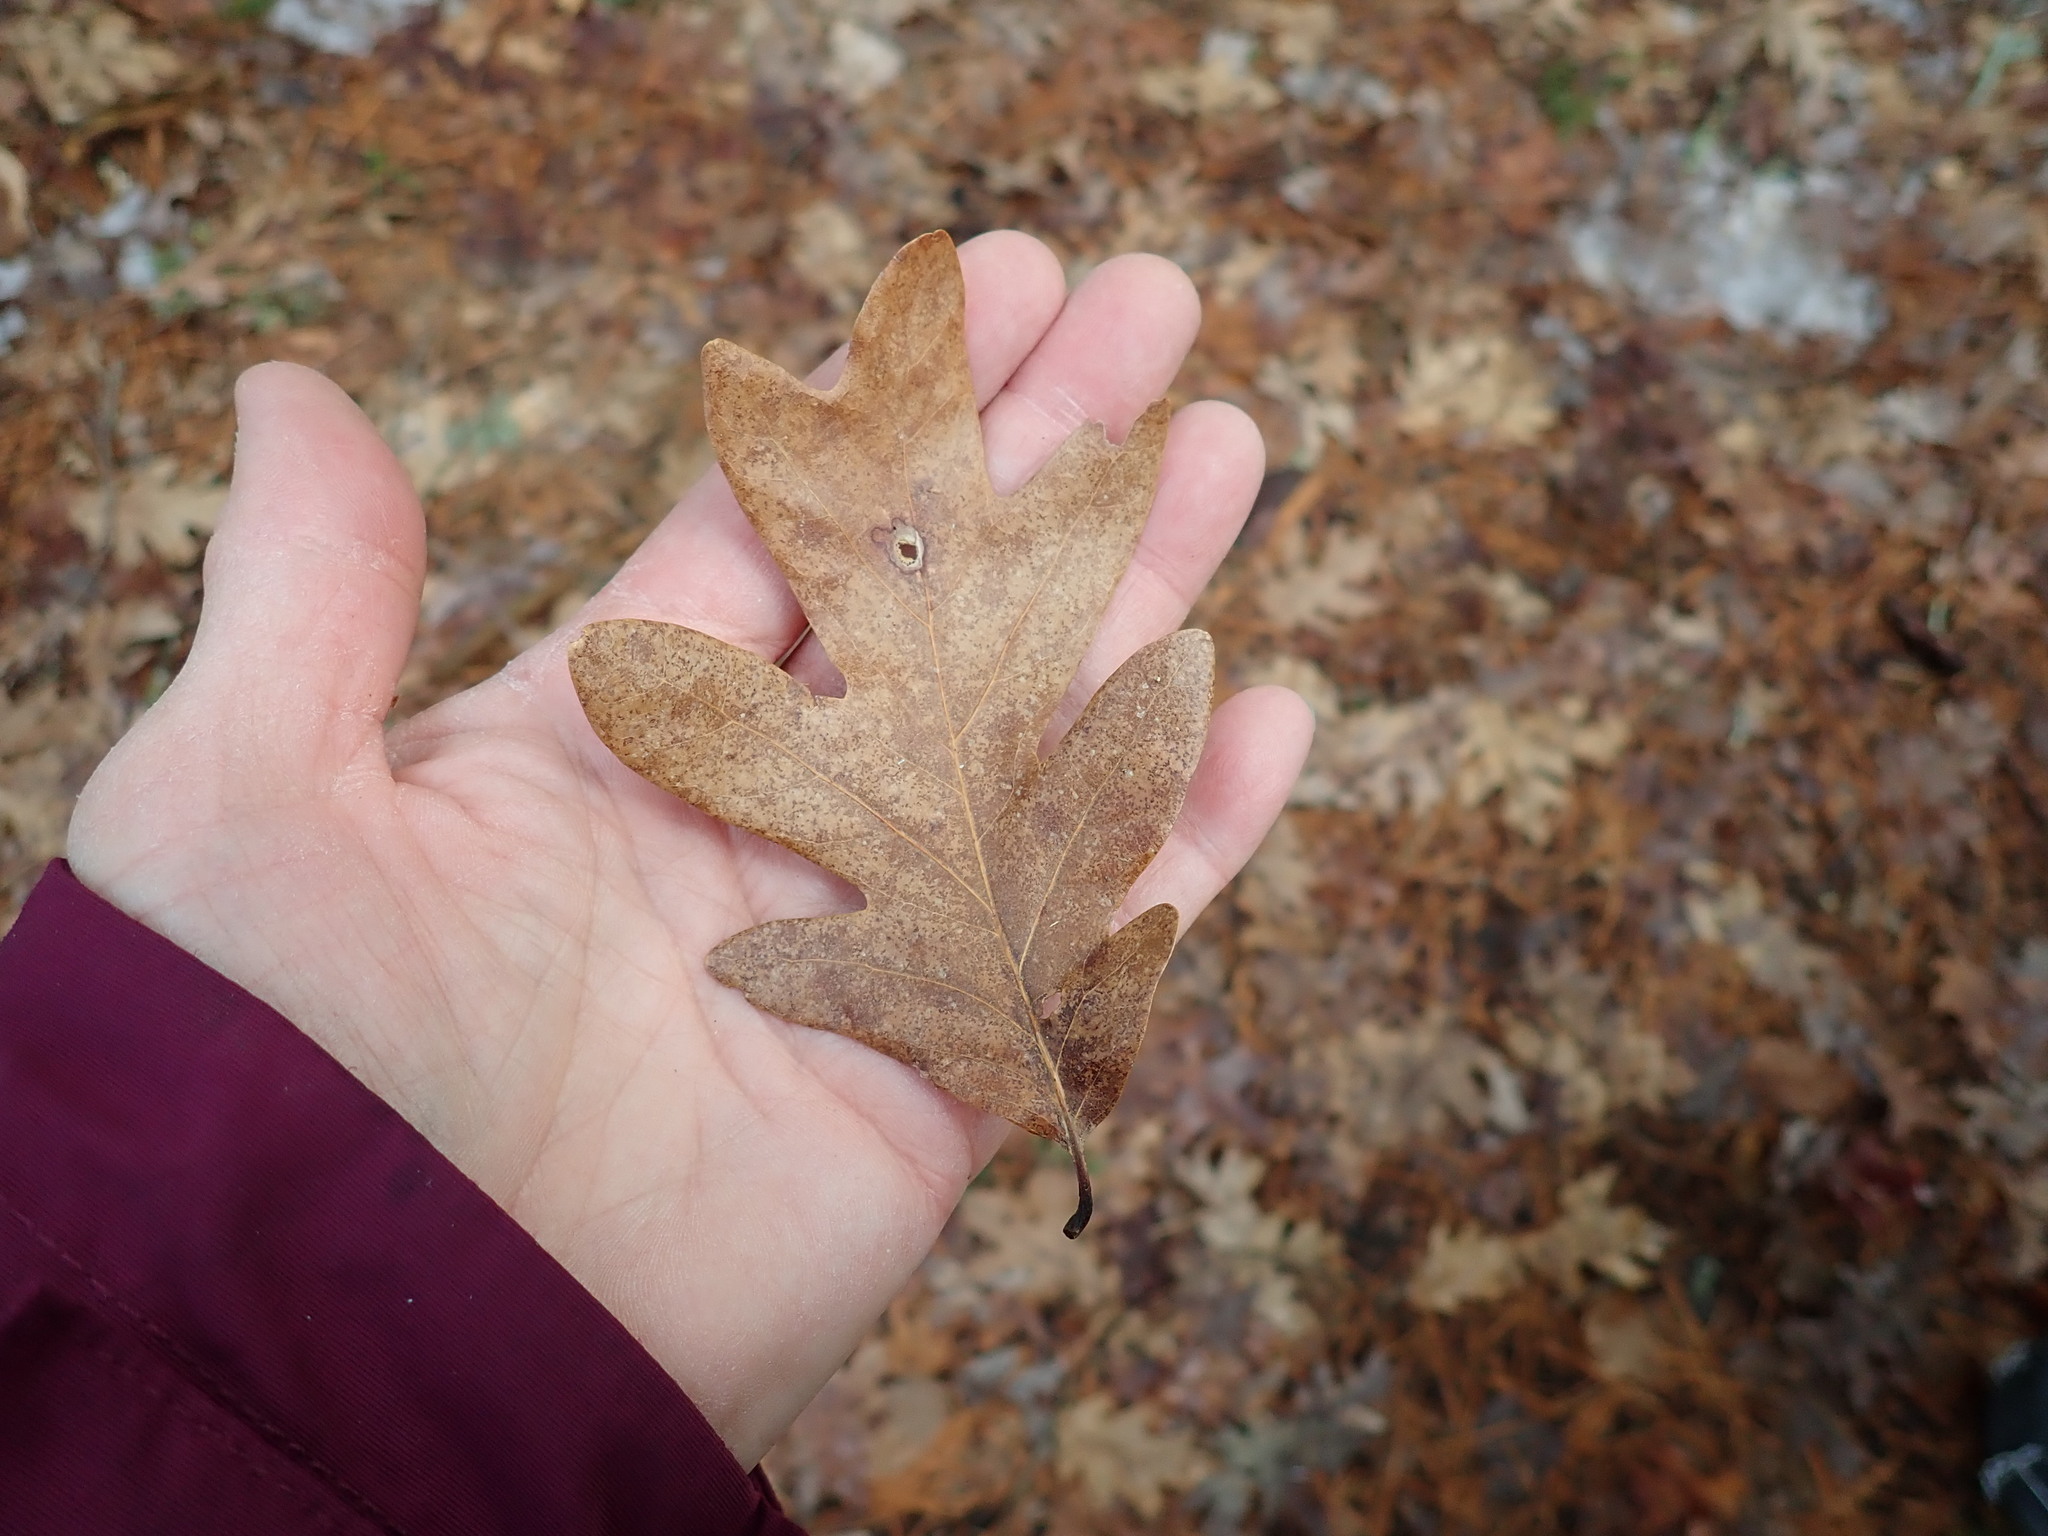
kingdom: Plantae
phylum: Tracheophyta
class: Magnoliopsida
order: Fagales
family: Fagaceae
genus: Quercus
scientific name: Quercus alba
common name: White oak
